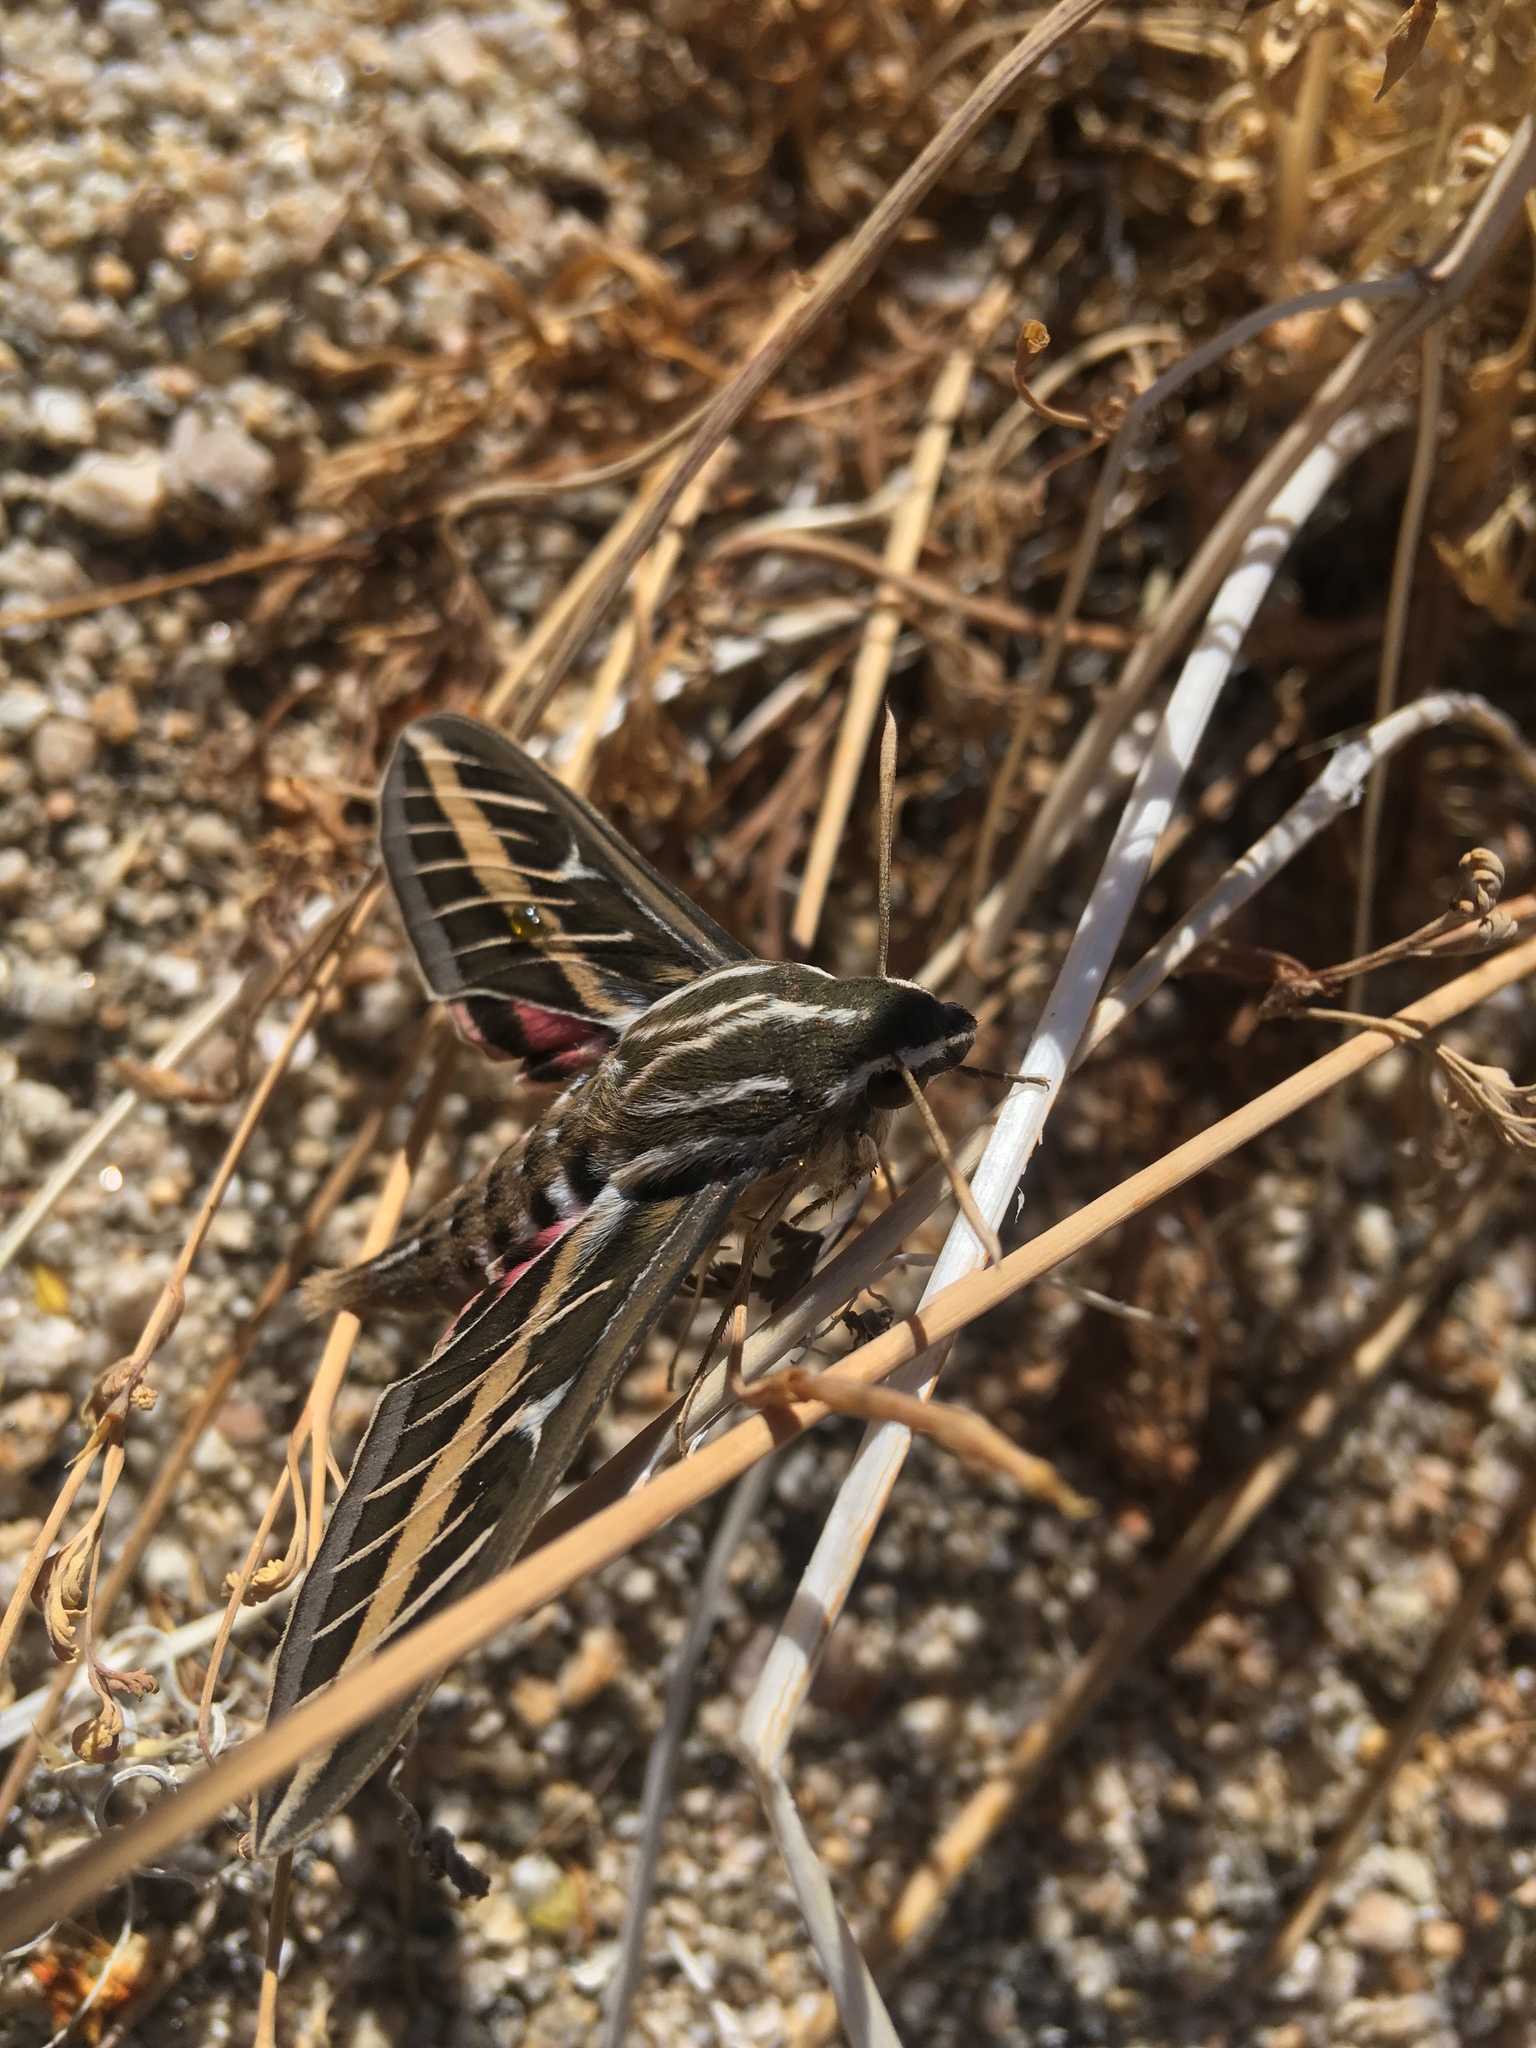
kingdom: Animalia
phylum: Arthropoda
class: Insecta
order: Lepidoptera
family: Sphingidae
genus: Hyles
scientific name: Hyles lineata
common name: White-lined sphinx
